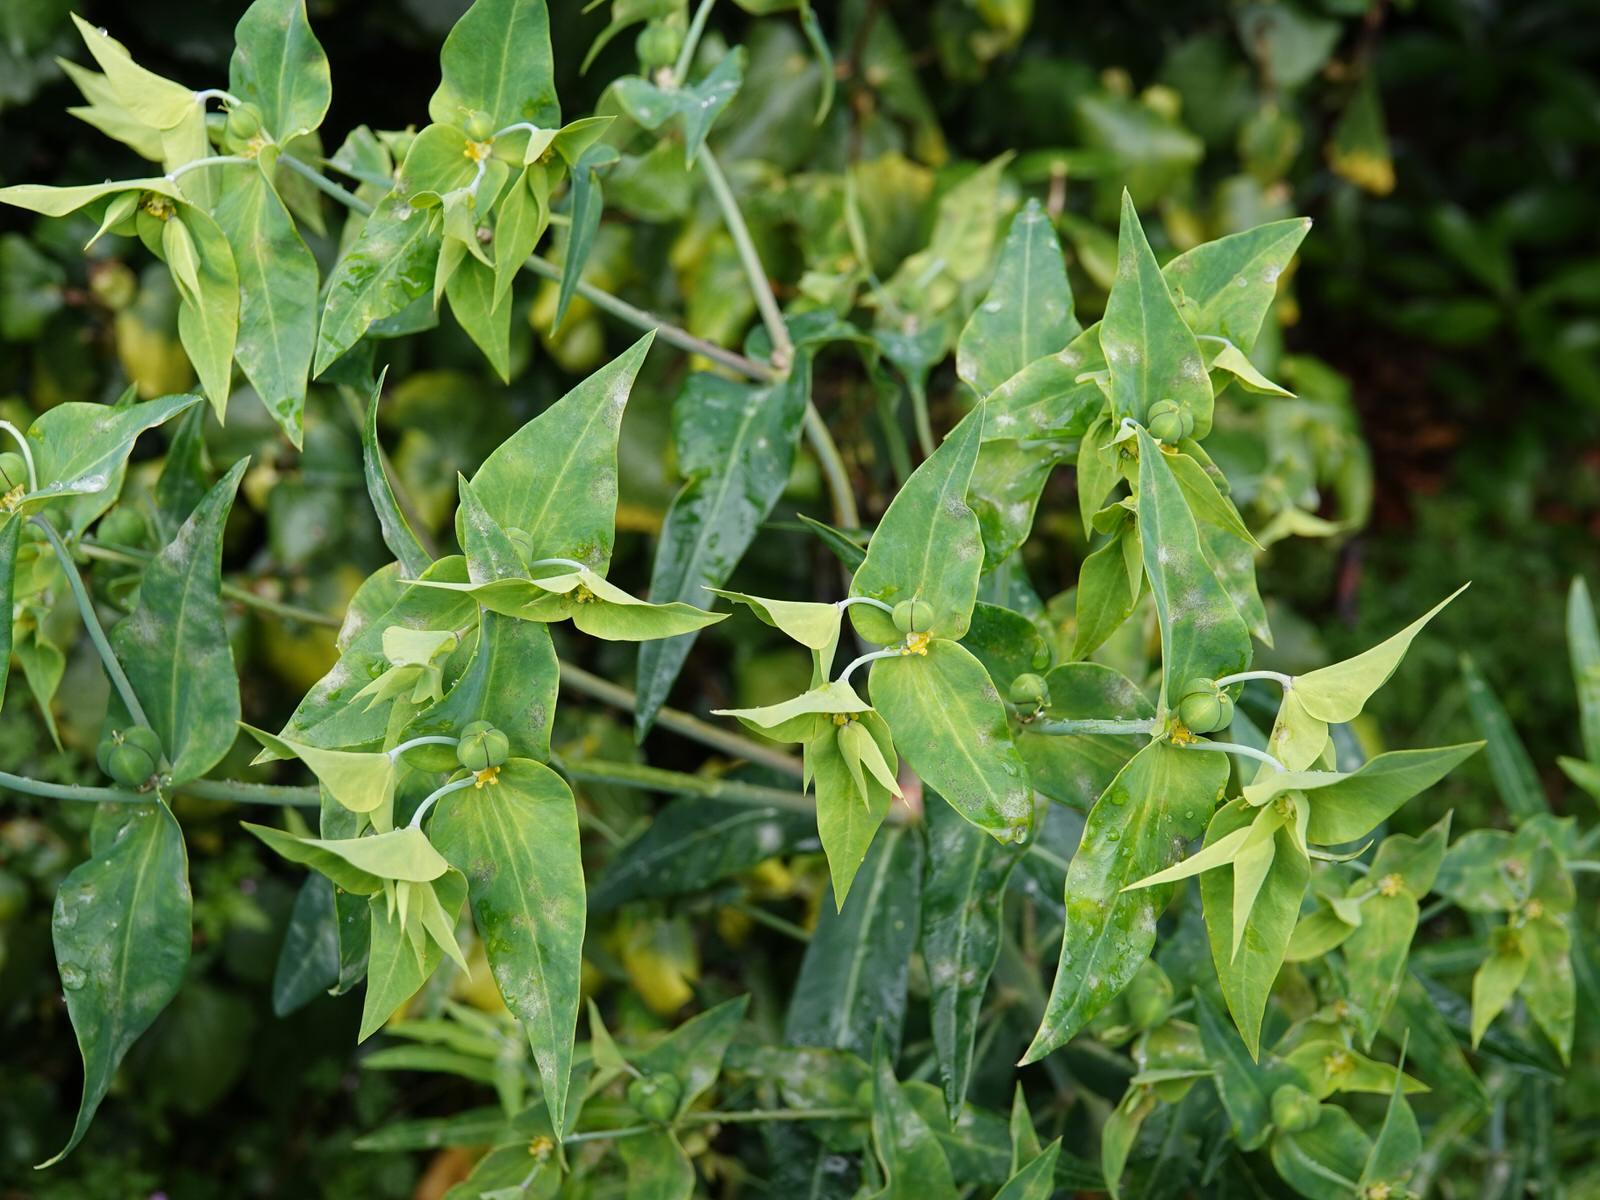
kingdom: Plantae
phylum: Tracheophyta
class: Magnoliopsida
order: Malpighiales
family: Euphorbiaceae
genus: Euphorbia
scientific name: Euphorbia lathyris
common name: Caper spurge
